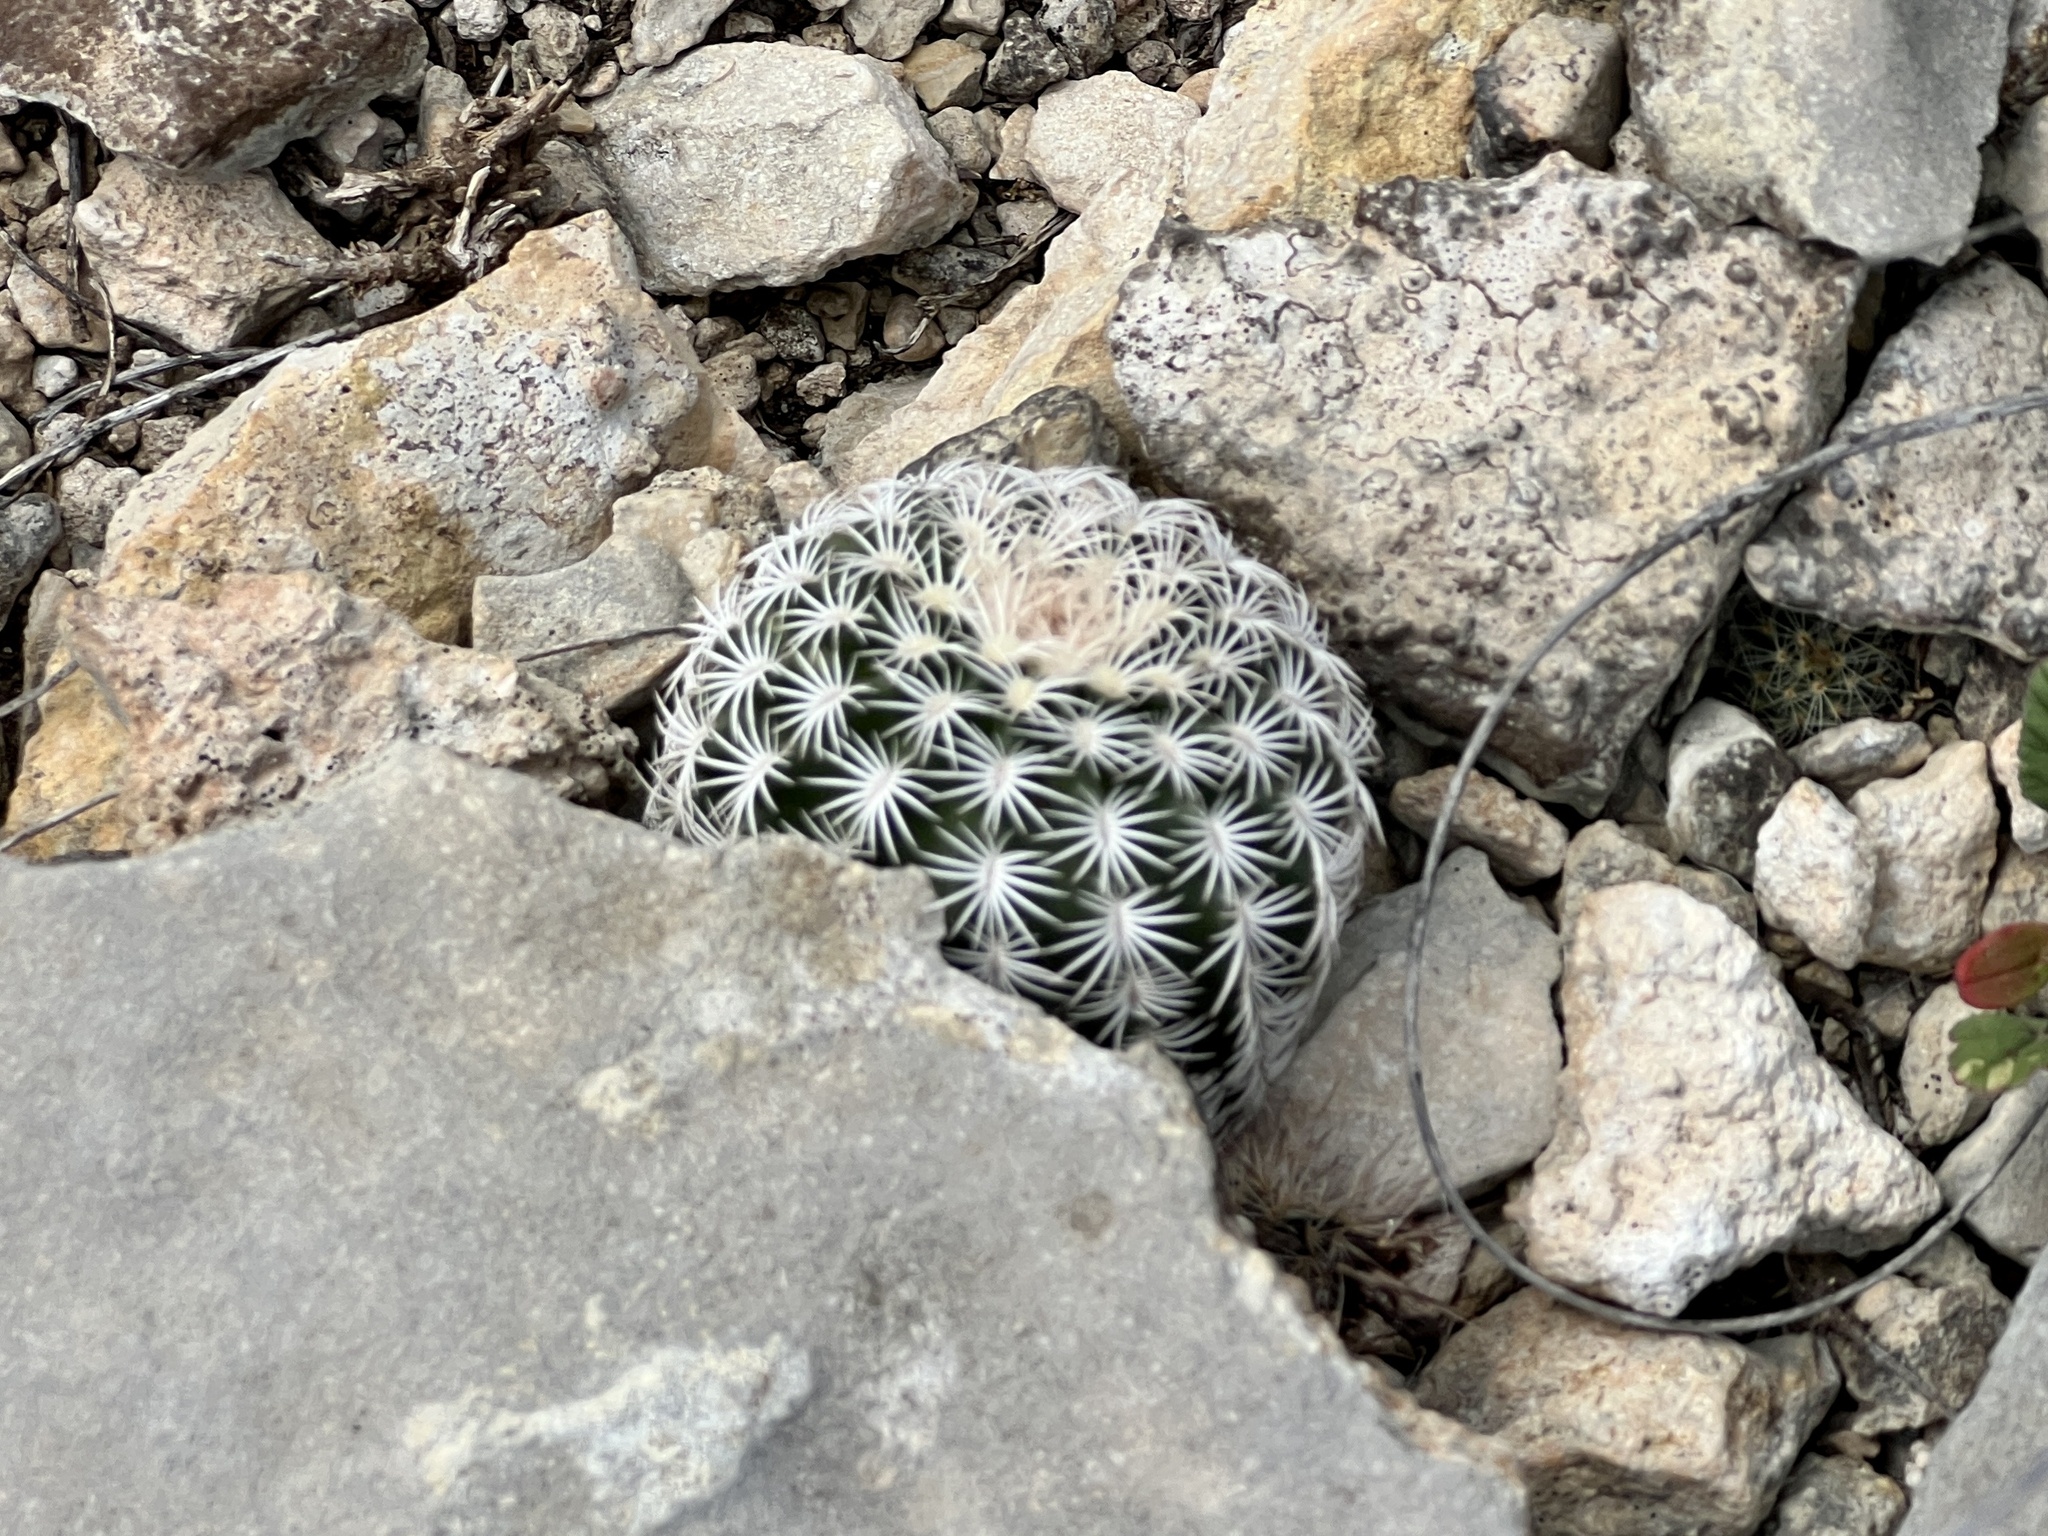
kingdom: Plantae
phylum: Tracheophyta
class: Magnoliopsida
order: Caryophyllales
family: Cactaceae
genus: Echinocereus
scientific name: Echinocereus reichenbachii
